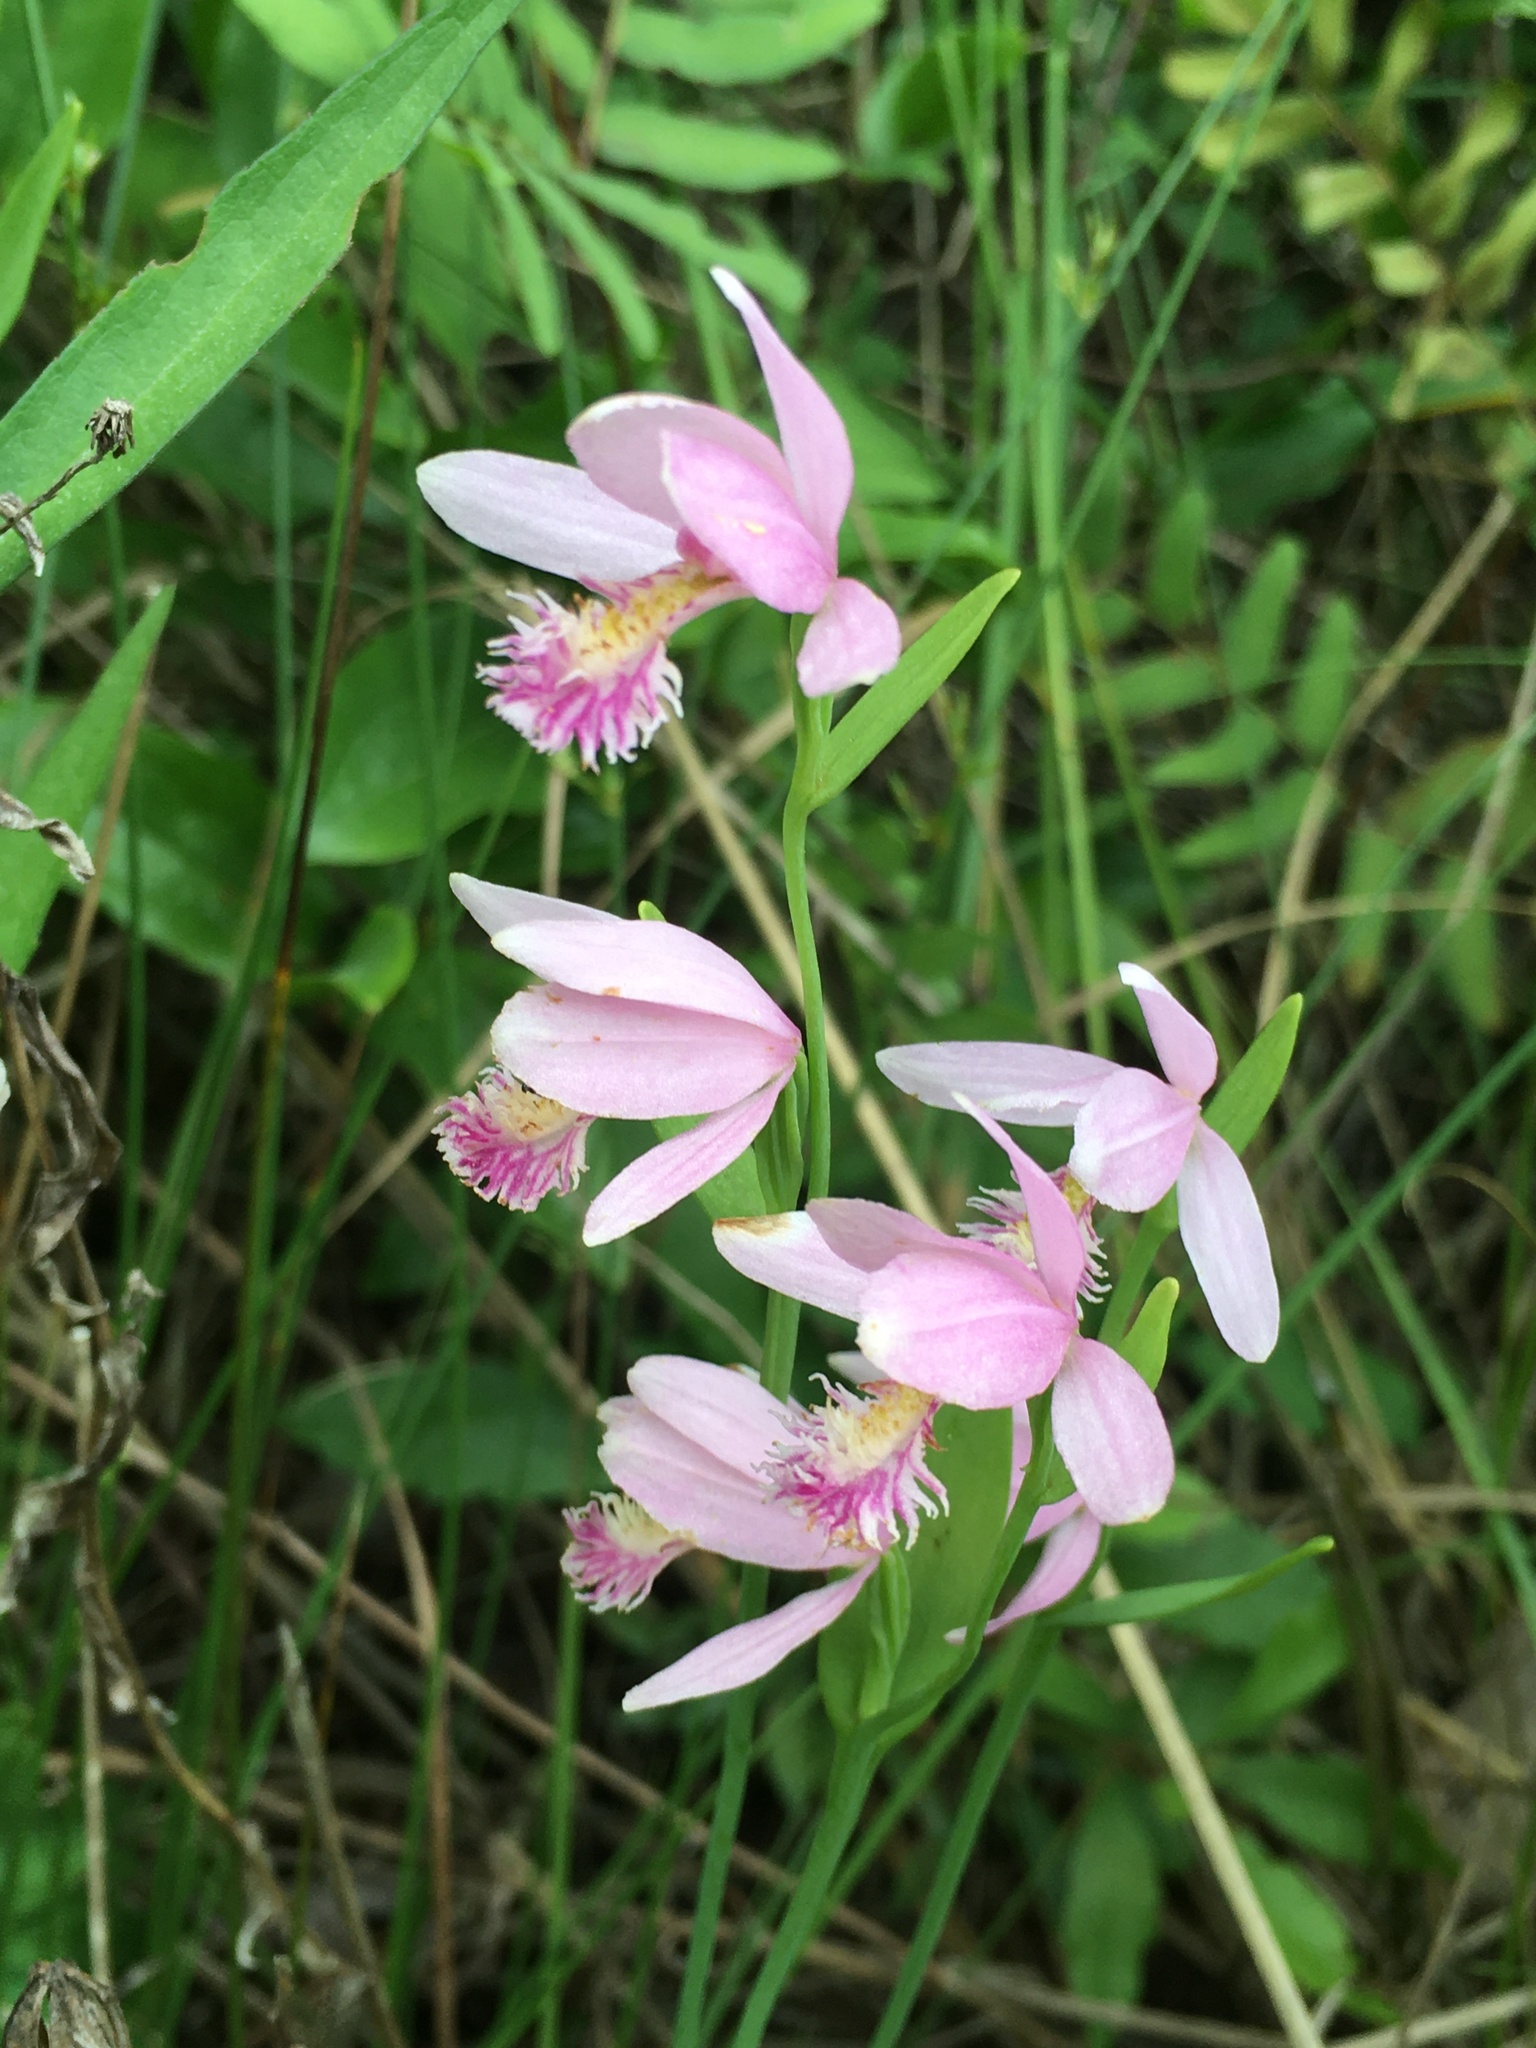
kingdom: Plantae
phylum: Tracheophyta
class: Liliopsida
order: Asparagales
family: Orchidaceae
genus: Pogonia
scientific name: Pogonia ophioglossoides
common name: Rose pogonia
